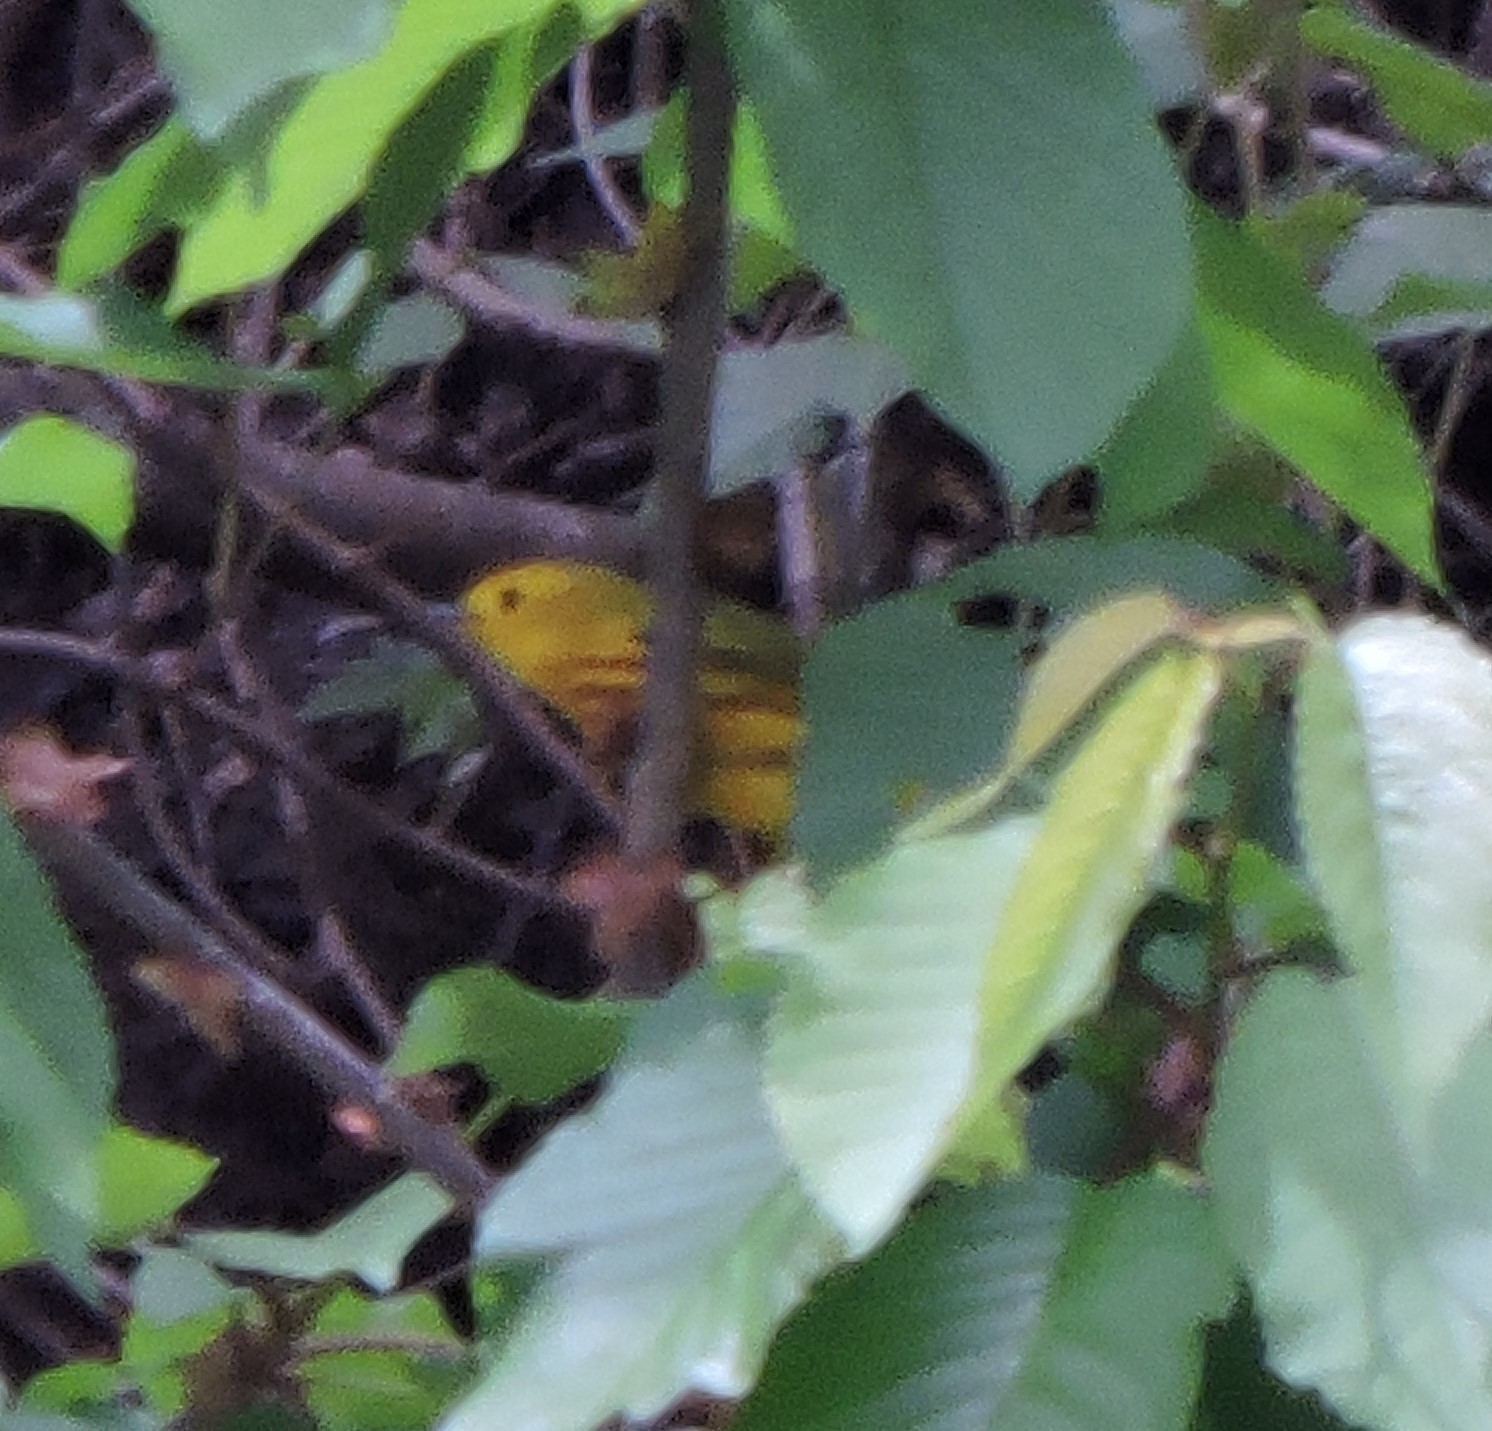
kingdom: Animalia
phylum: Chordata
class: Aves
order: Passeriformes
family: Parulidae
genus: Setophaga
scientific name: Setophaga petechia
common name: Yellow warbler
